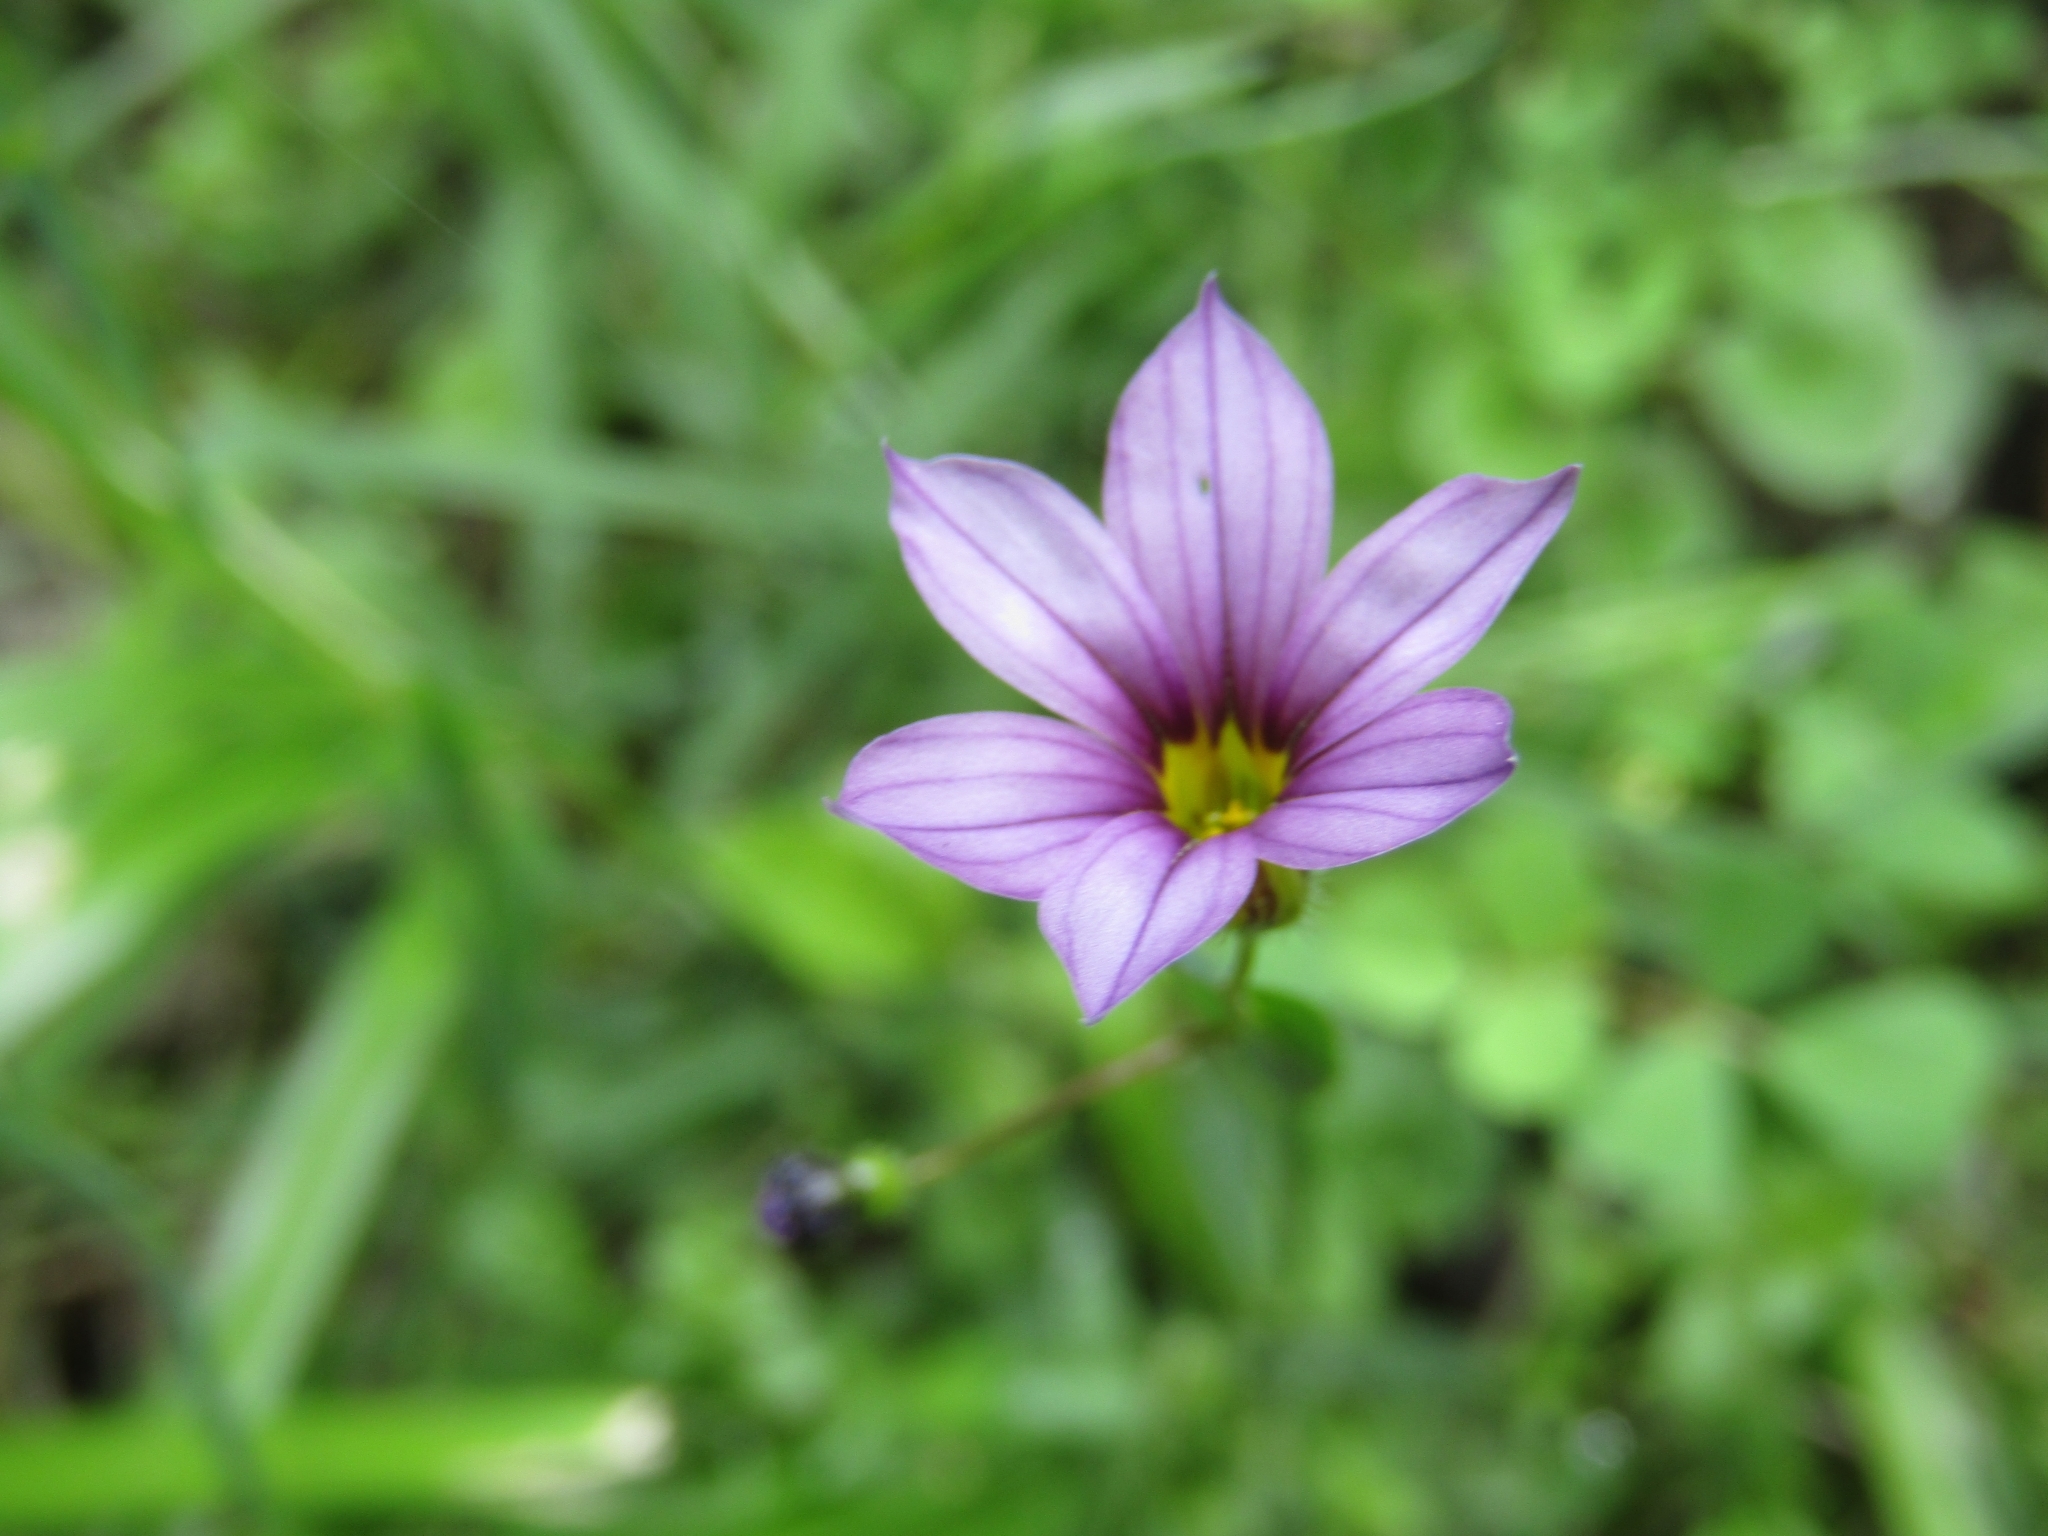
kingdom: Plantae
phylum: Tracheophyta
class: Liliopsida
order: Asparagales
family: Iridaceae
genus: Sisyrinchium
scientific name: Sisyrinchium platense
